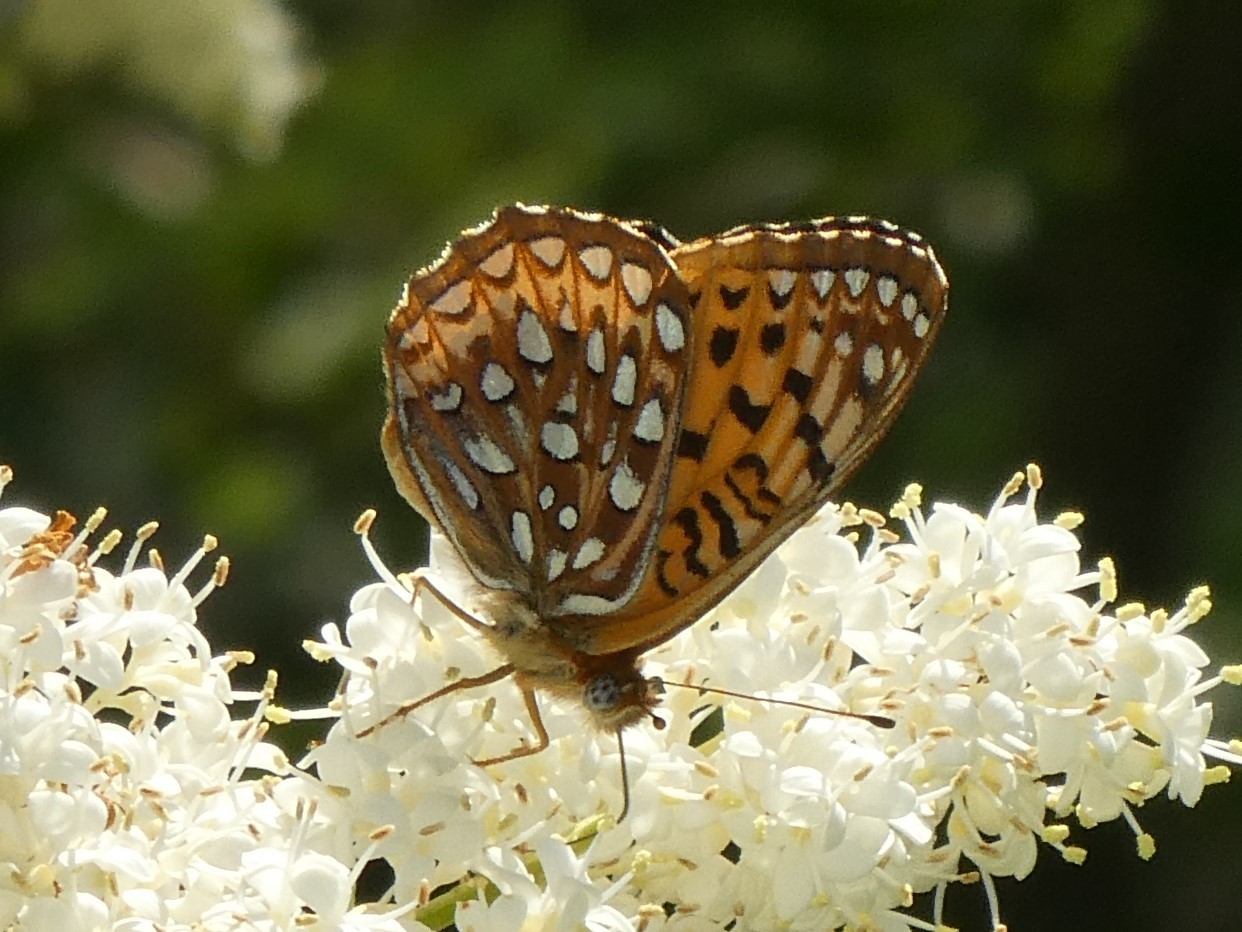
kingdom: Animalia
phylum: Arthropoda
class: Insecta
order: Lepidoptera
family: Nymphalidae
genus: Speyeria
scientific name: Speyeria atlantis
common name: Atlantis fritillary
